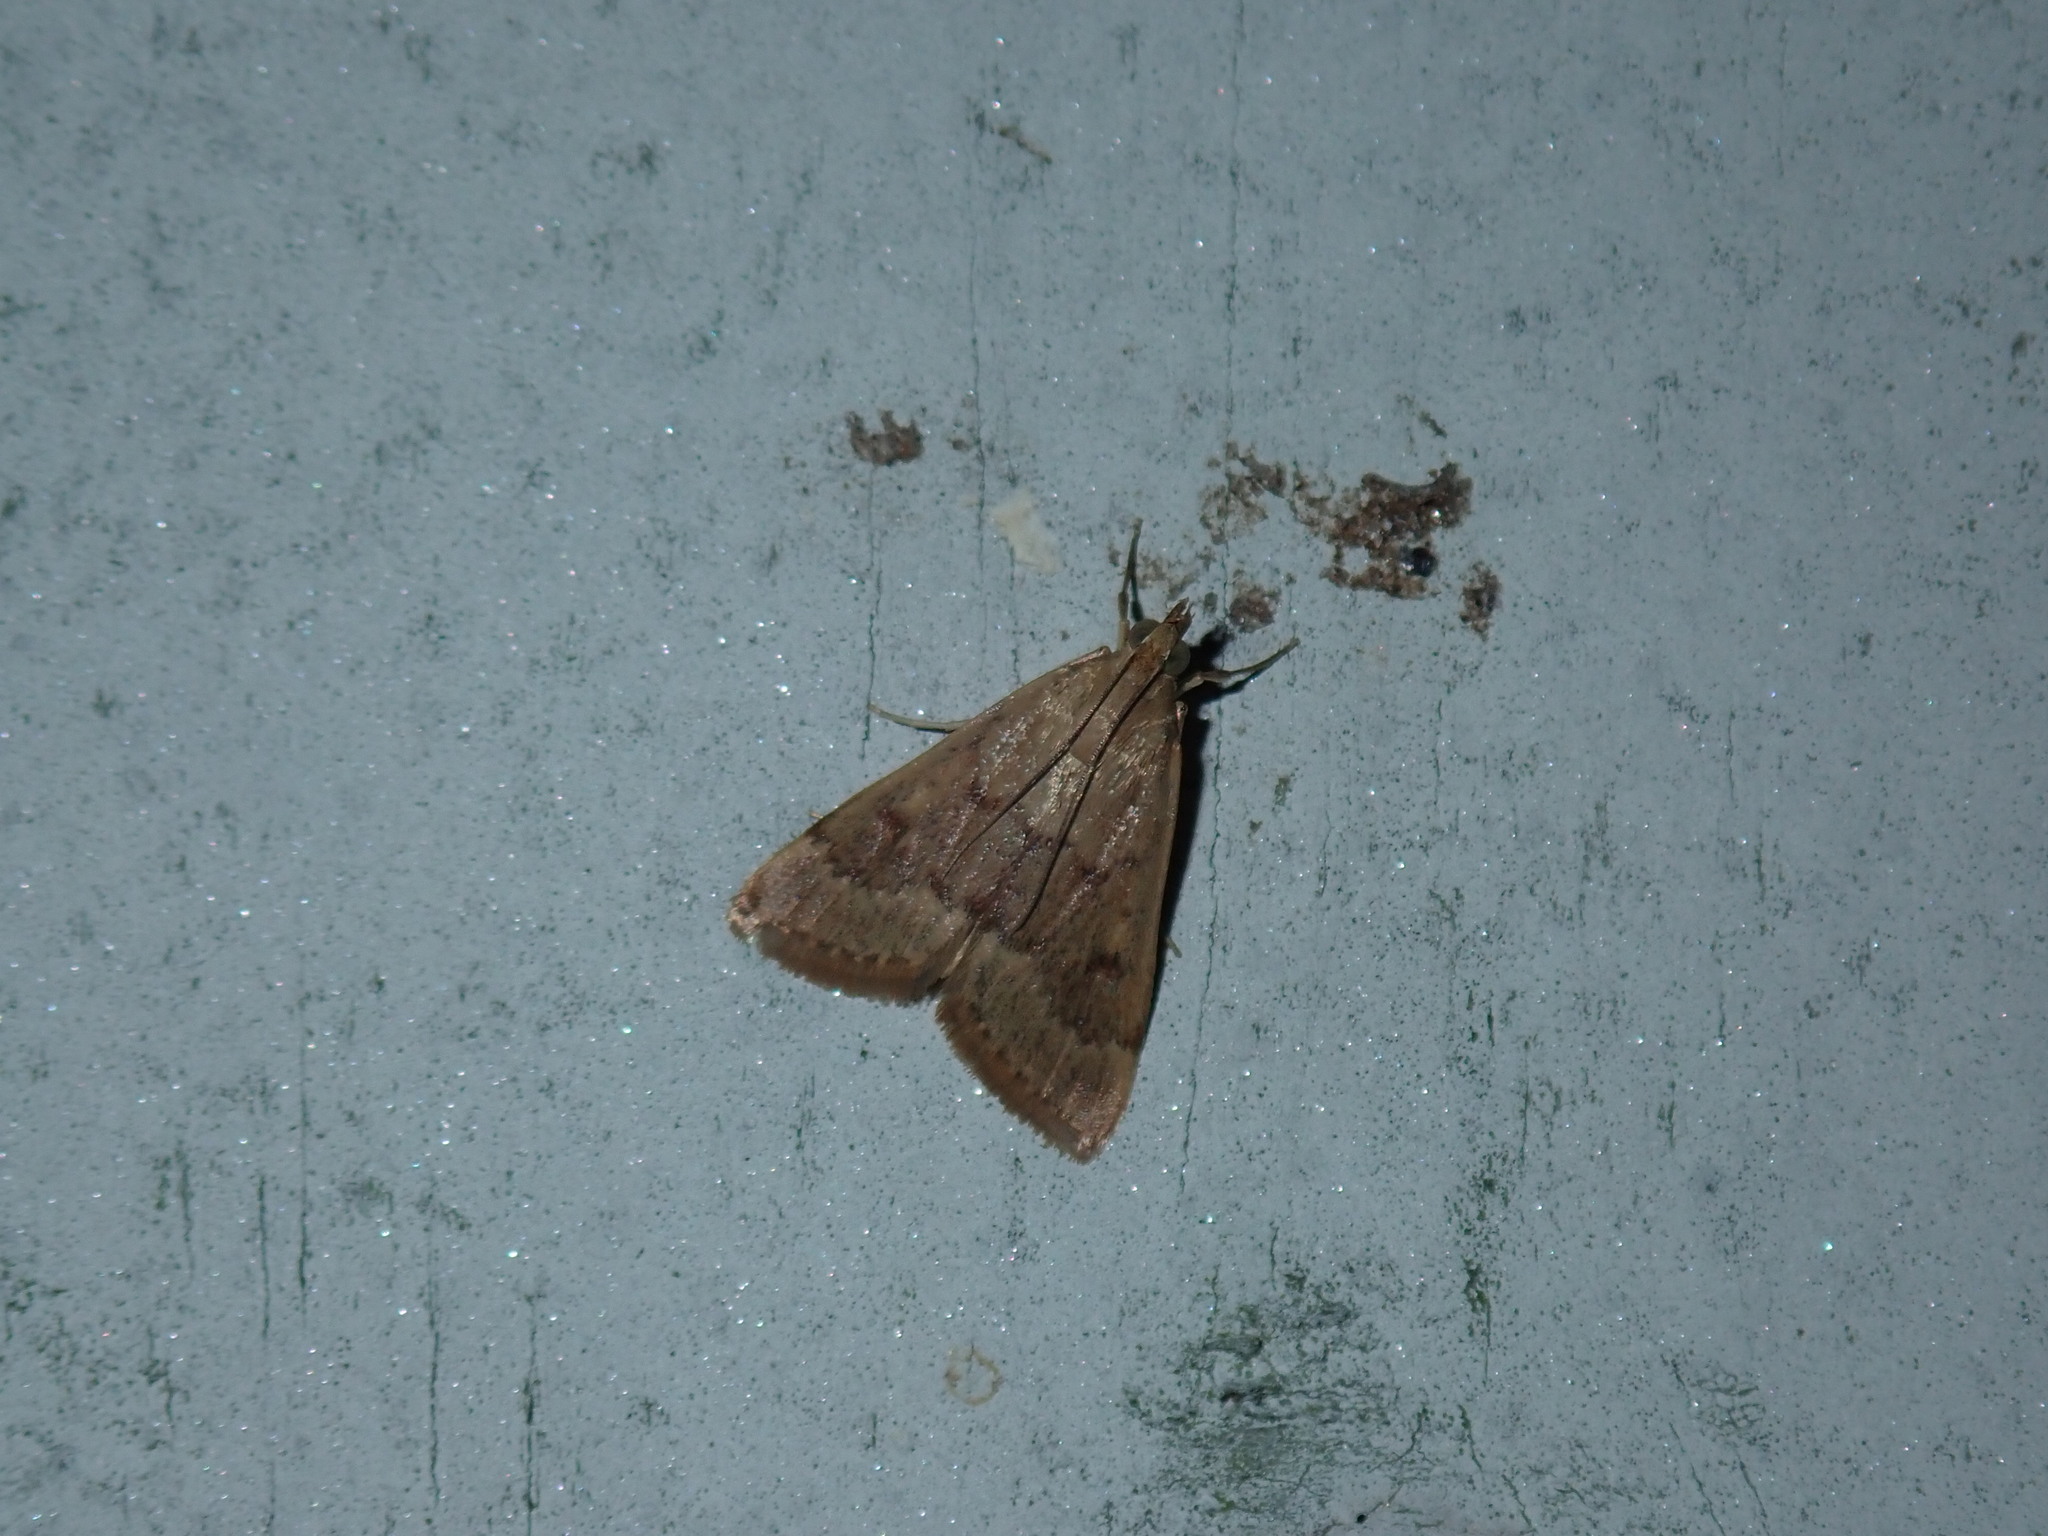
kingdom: Animalia
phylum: Arthropoda
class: Insecta
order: Lepidoptera
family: Crambidae
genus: Achyra
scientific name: Achyra rantalis
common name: Garden webworm
